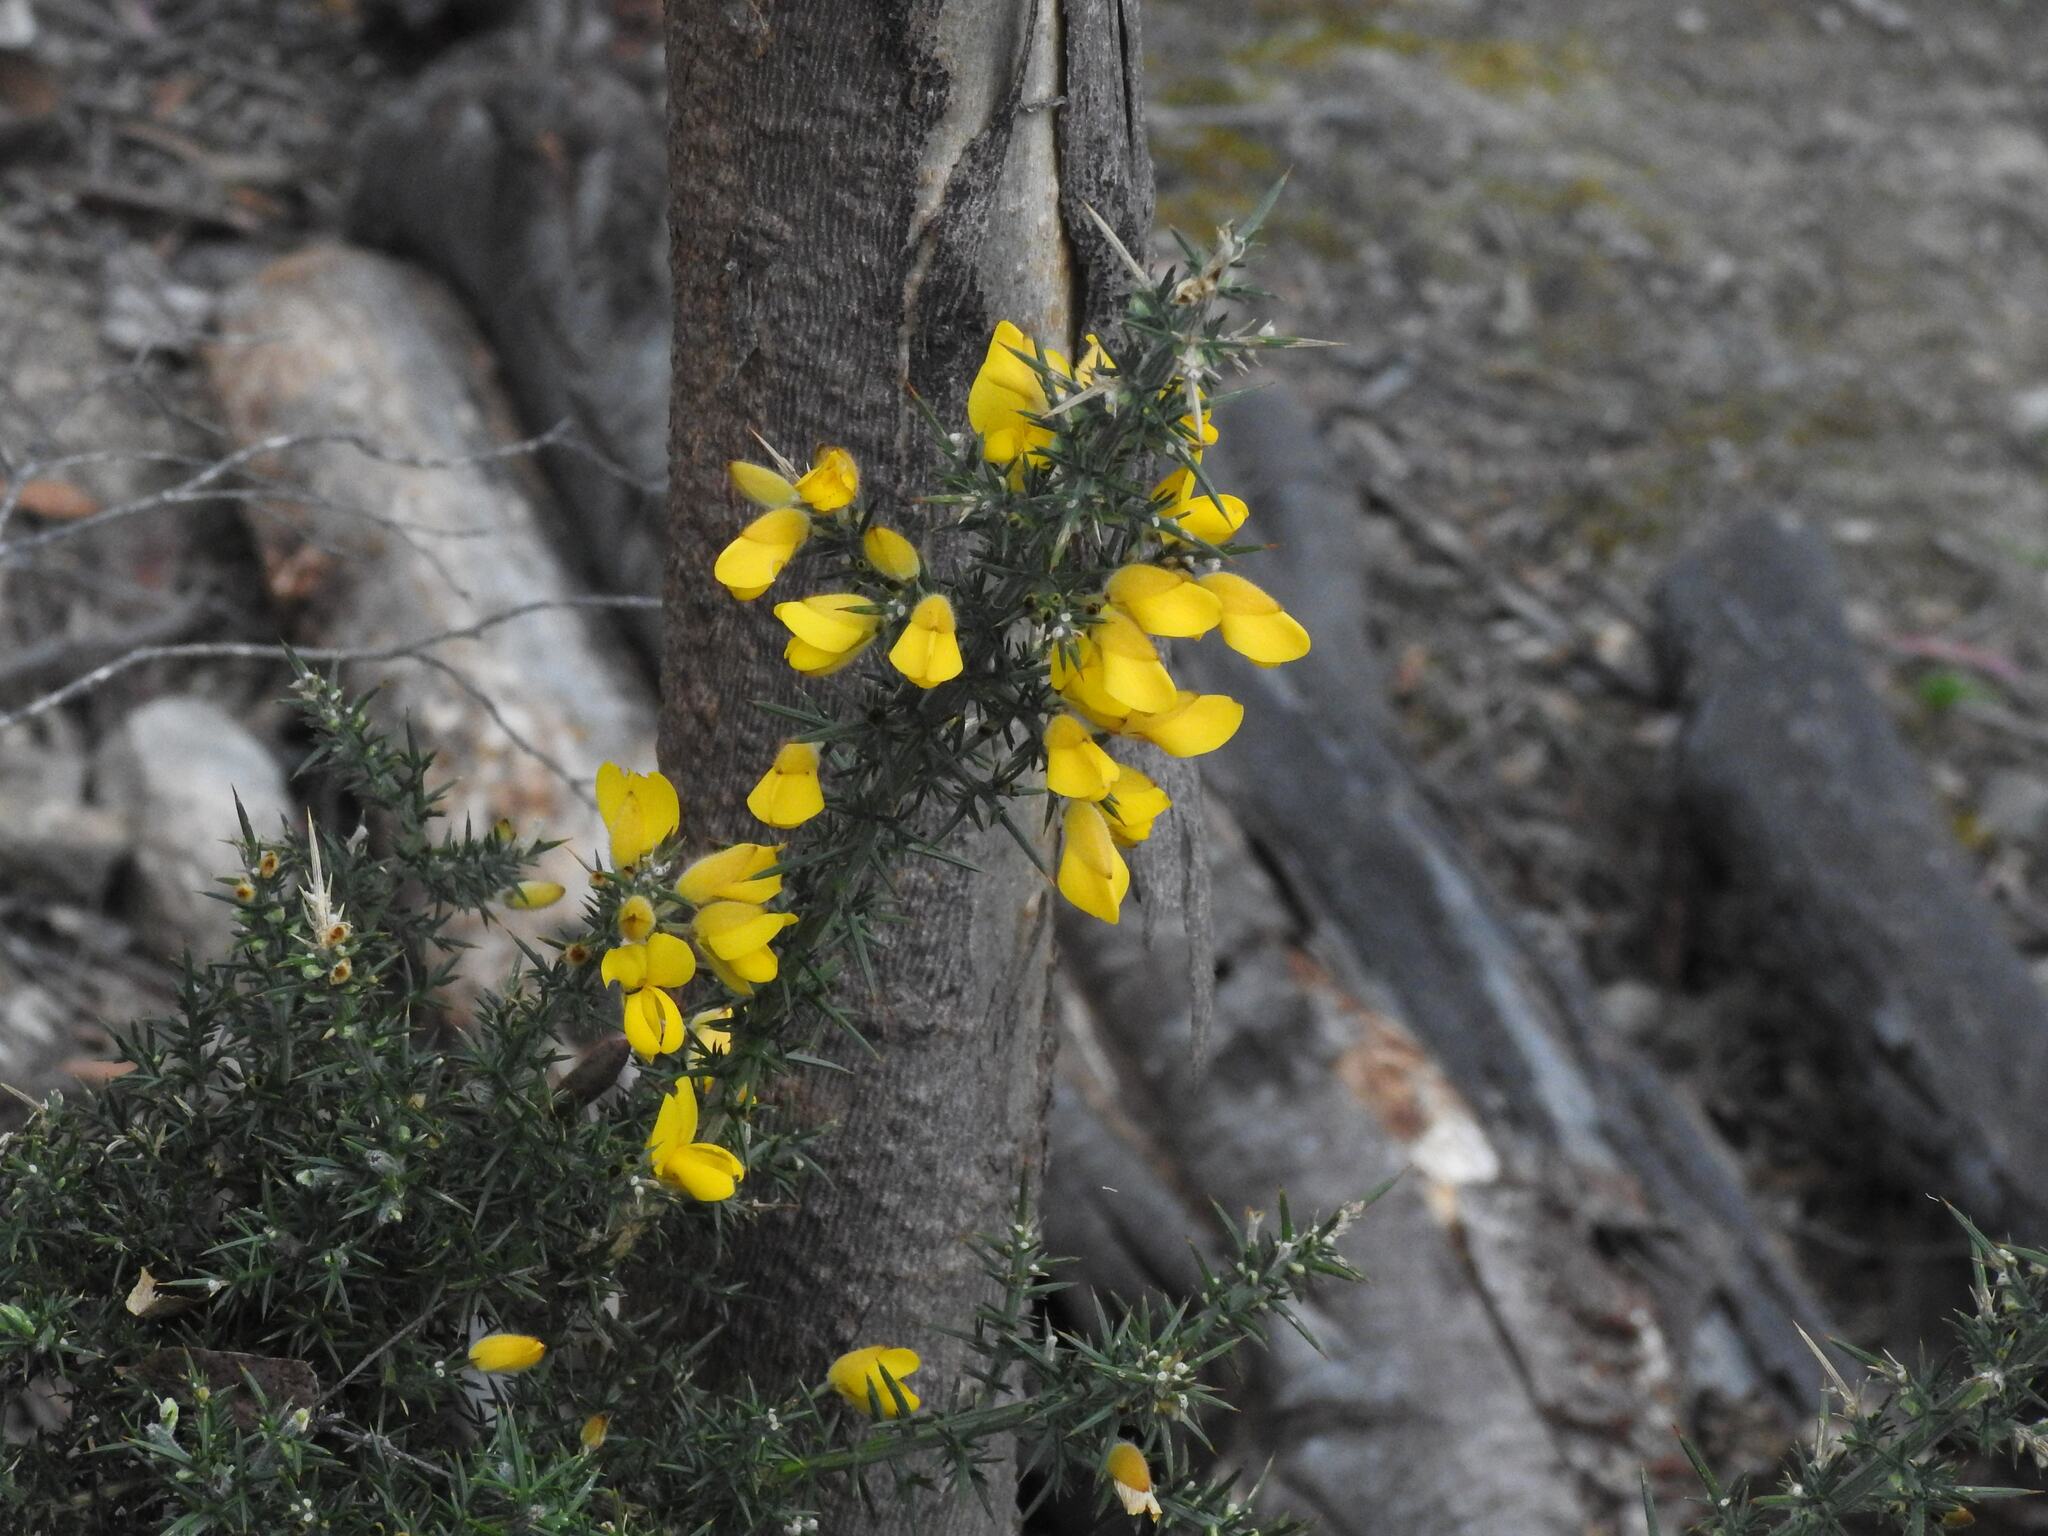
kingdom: Plantae
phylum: Tracheophyta
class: Magnoliopsida
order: Fabales
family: Fabaceae
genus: Ulex
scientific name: Ulex europaeus
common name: Common gorse
